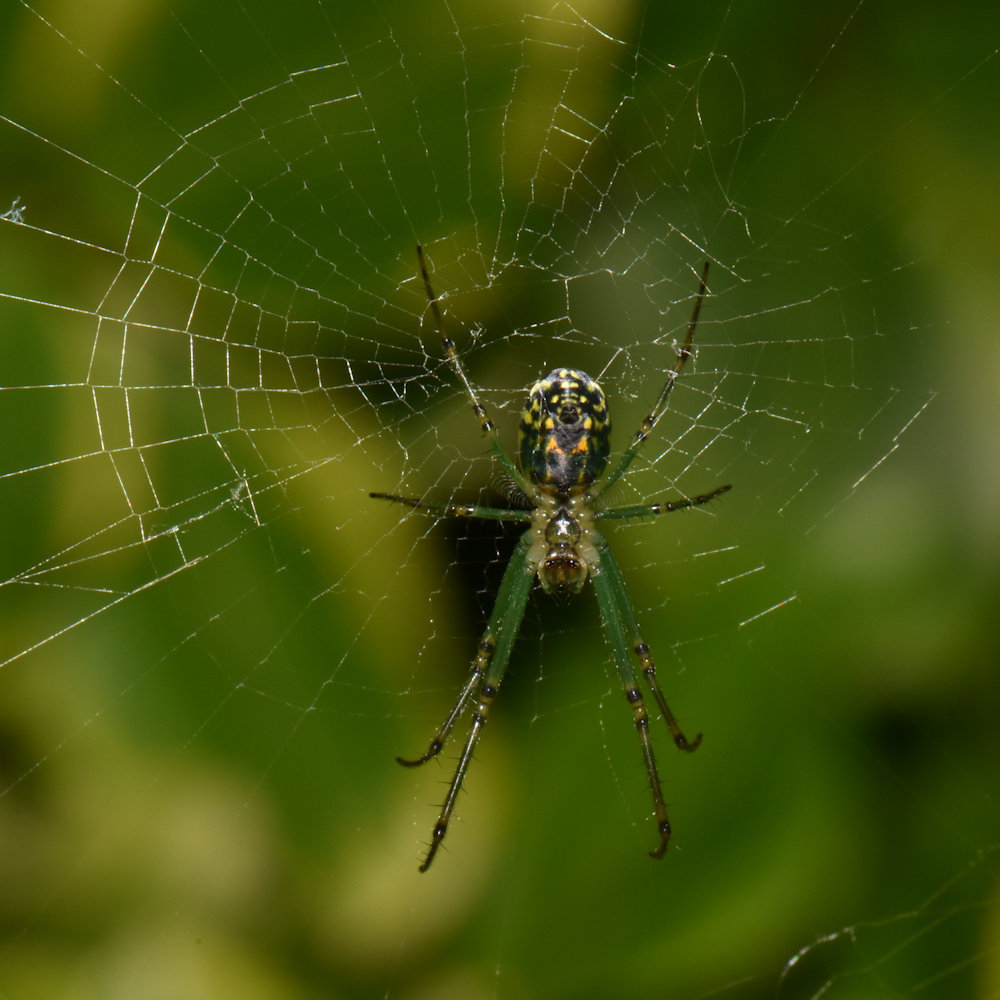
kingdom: Animalia
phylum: Arthropoda
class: Arachnida
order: Araneae
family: Tetragnathidae
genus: Leucauge
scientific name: Leucauge venusta
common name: Longjawed orb weavers
